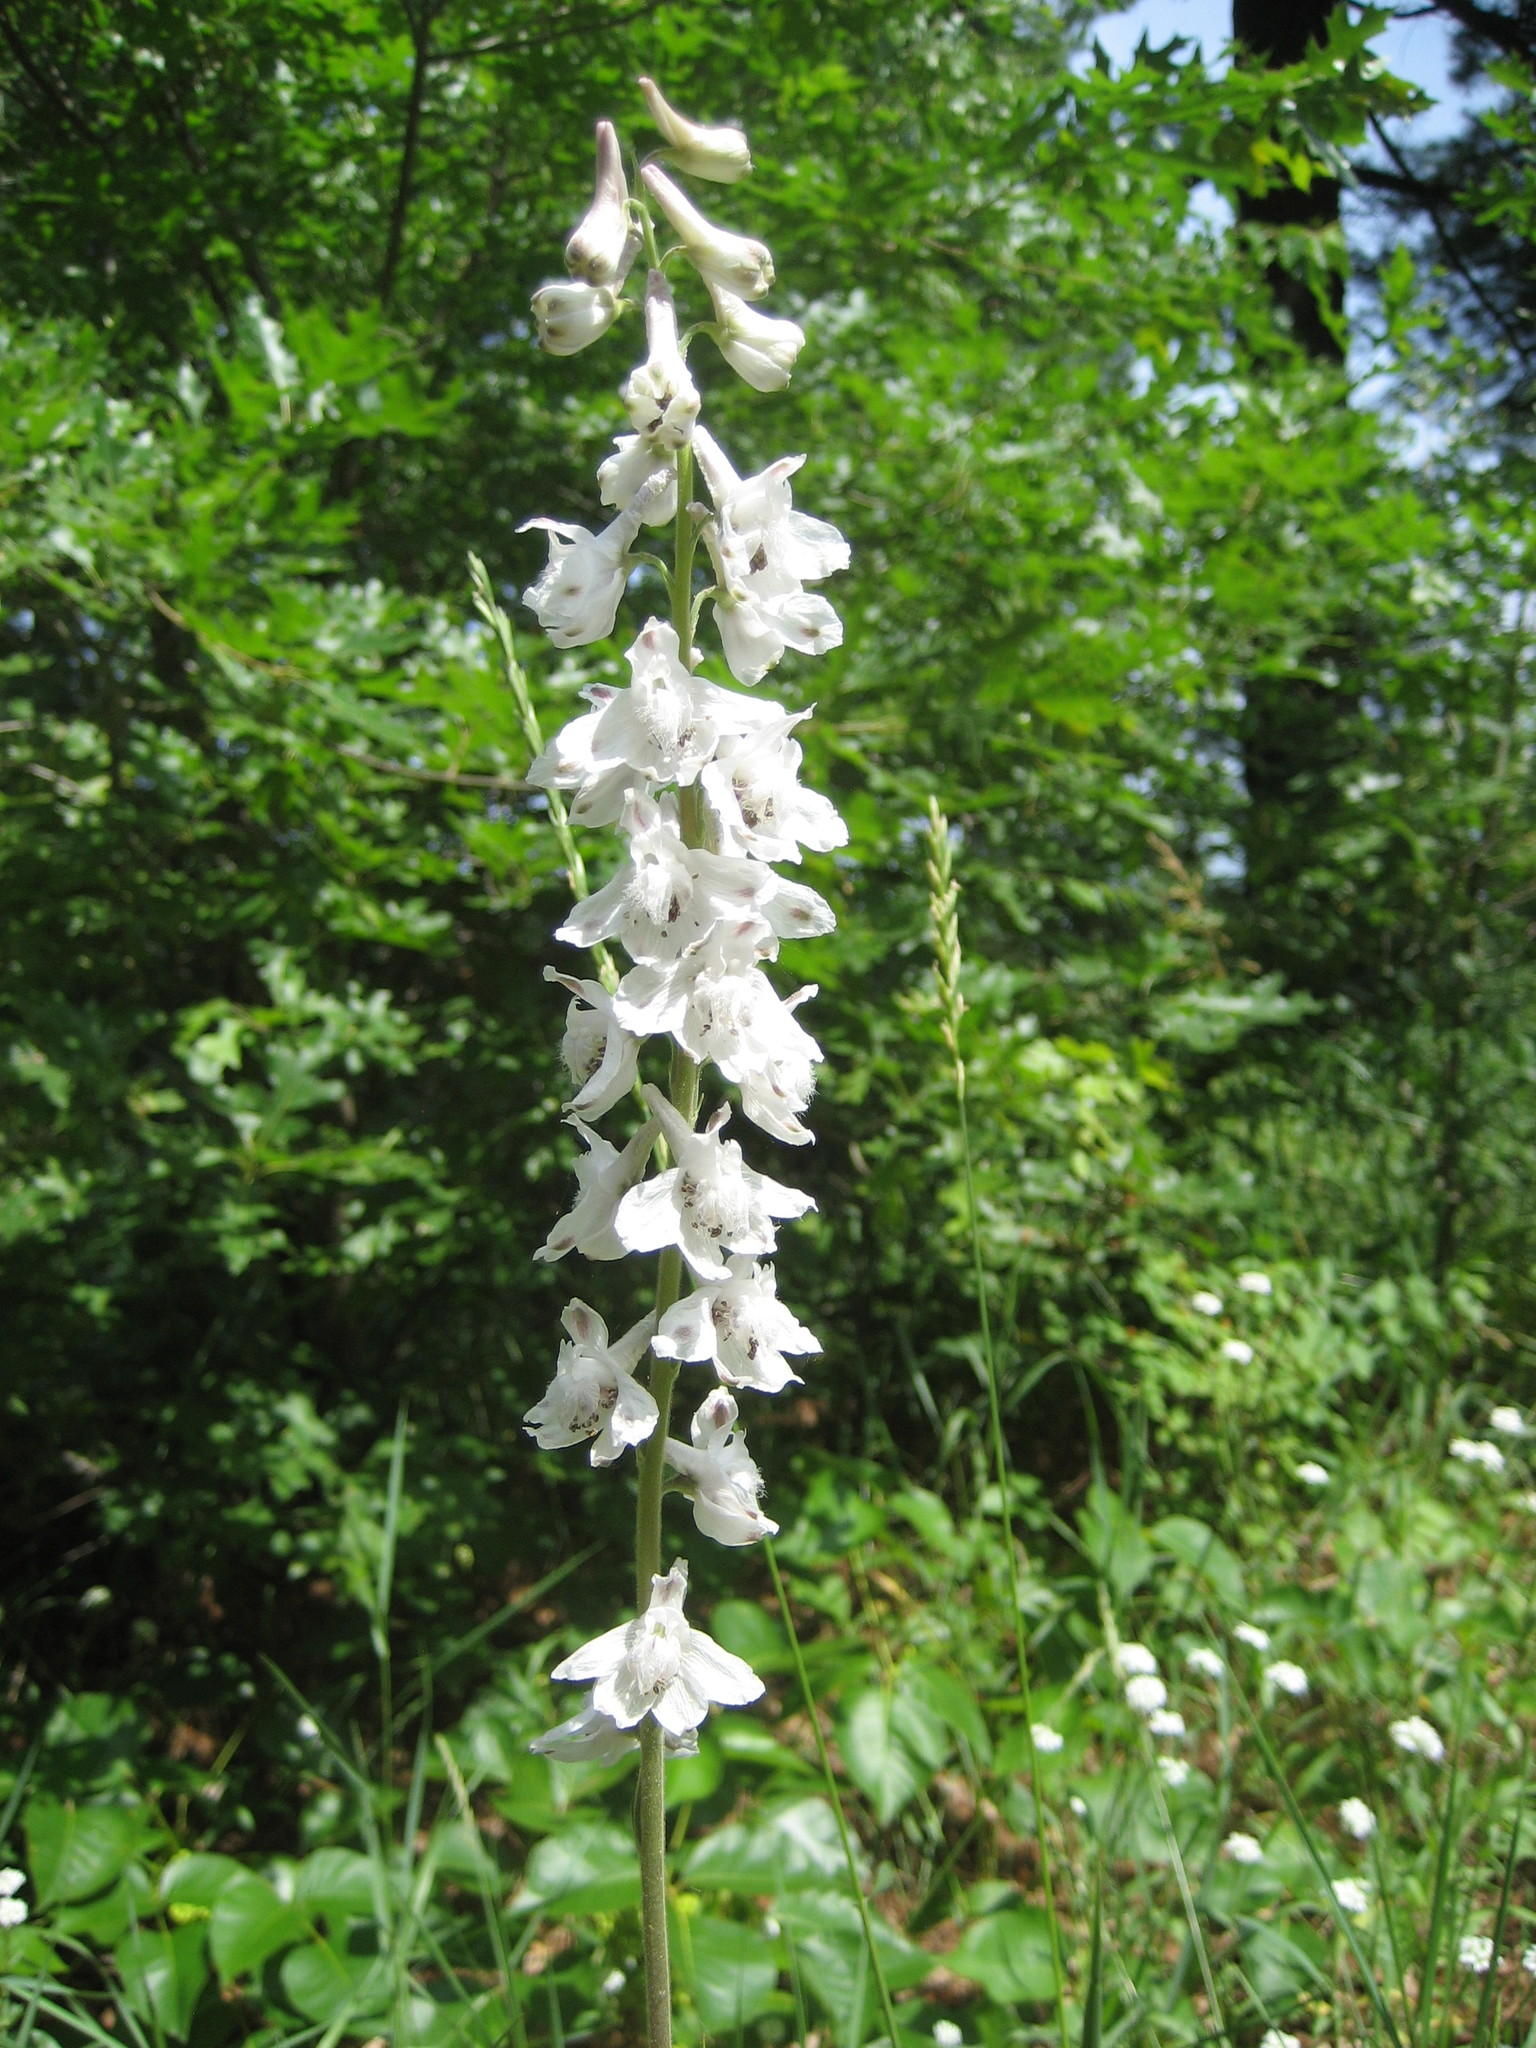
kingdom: Plantae
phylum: Tracheophyta
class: Magnoliopsida
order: Ranunculales
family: Ranunculaceae
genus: Delphinium
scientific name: Delphinium carolinianum
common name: Carolina larkspur
